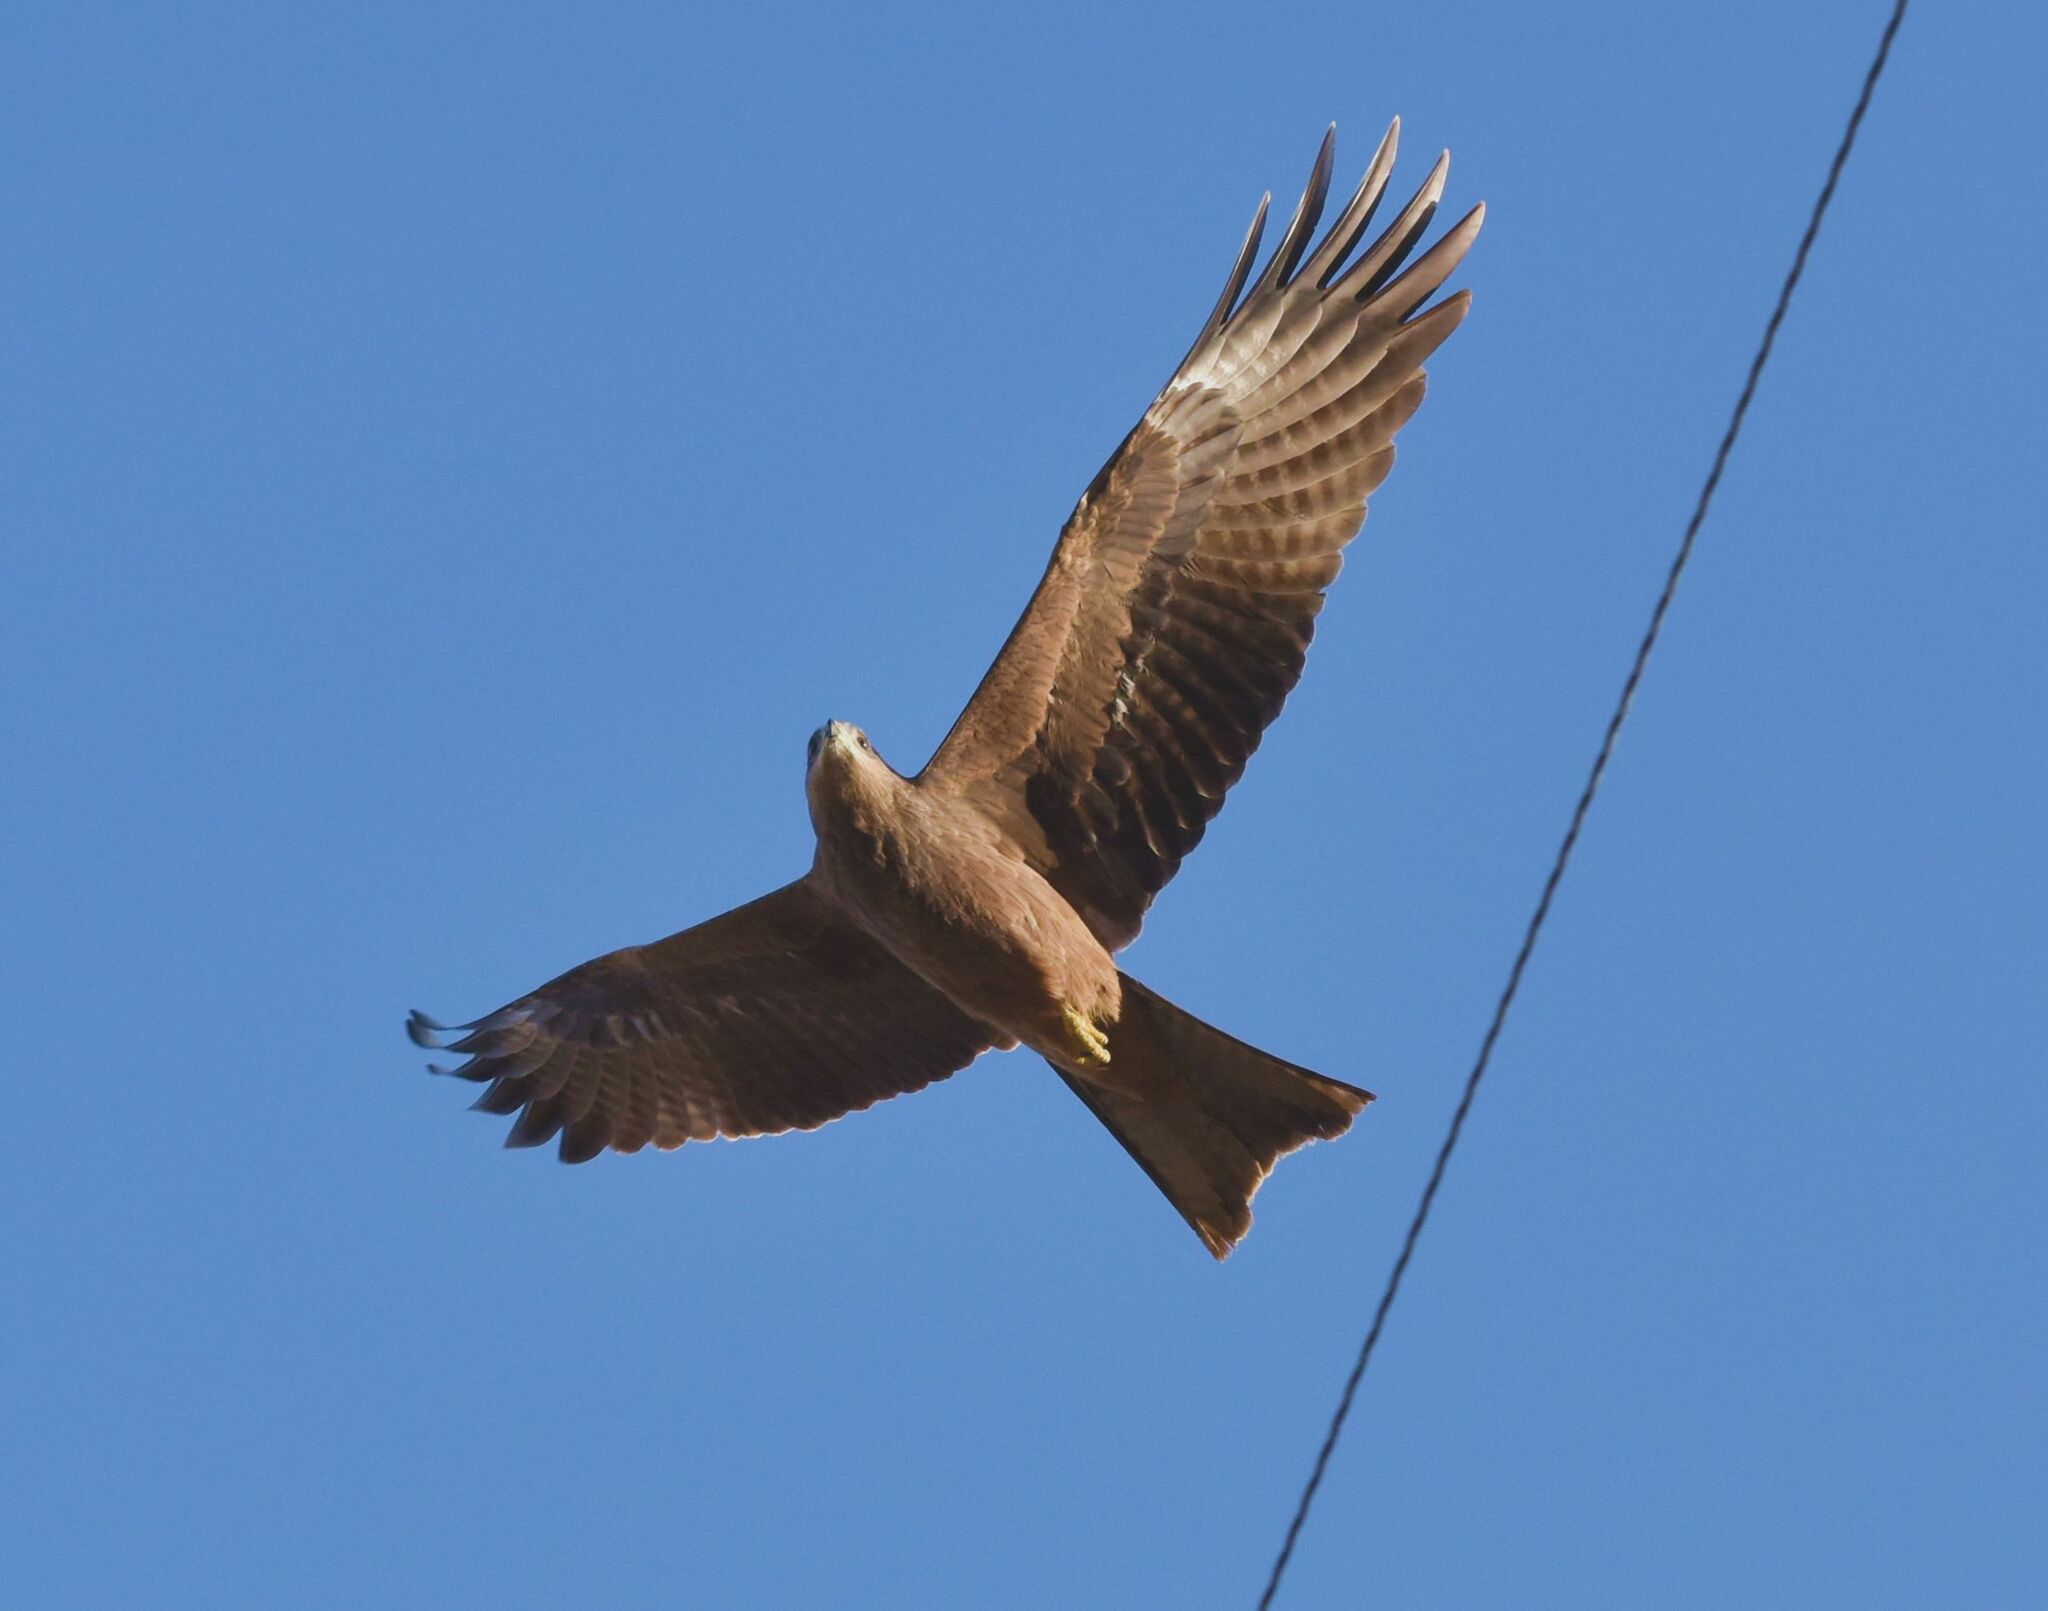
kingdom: Animalia
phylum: Chordata
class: Aves
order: Accipitriformes
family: Accipitridae
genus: Milvus
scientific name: Milvus migrans
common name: Black kite
